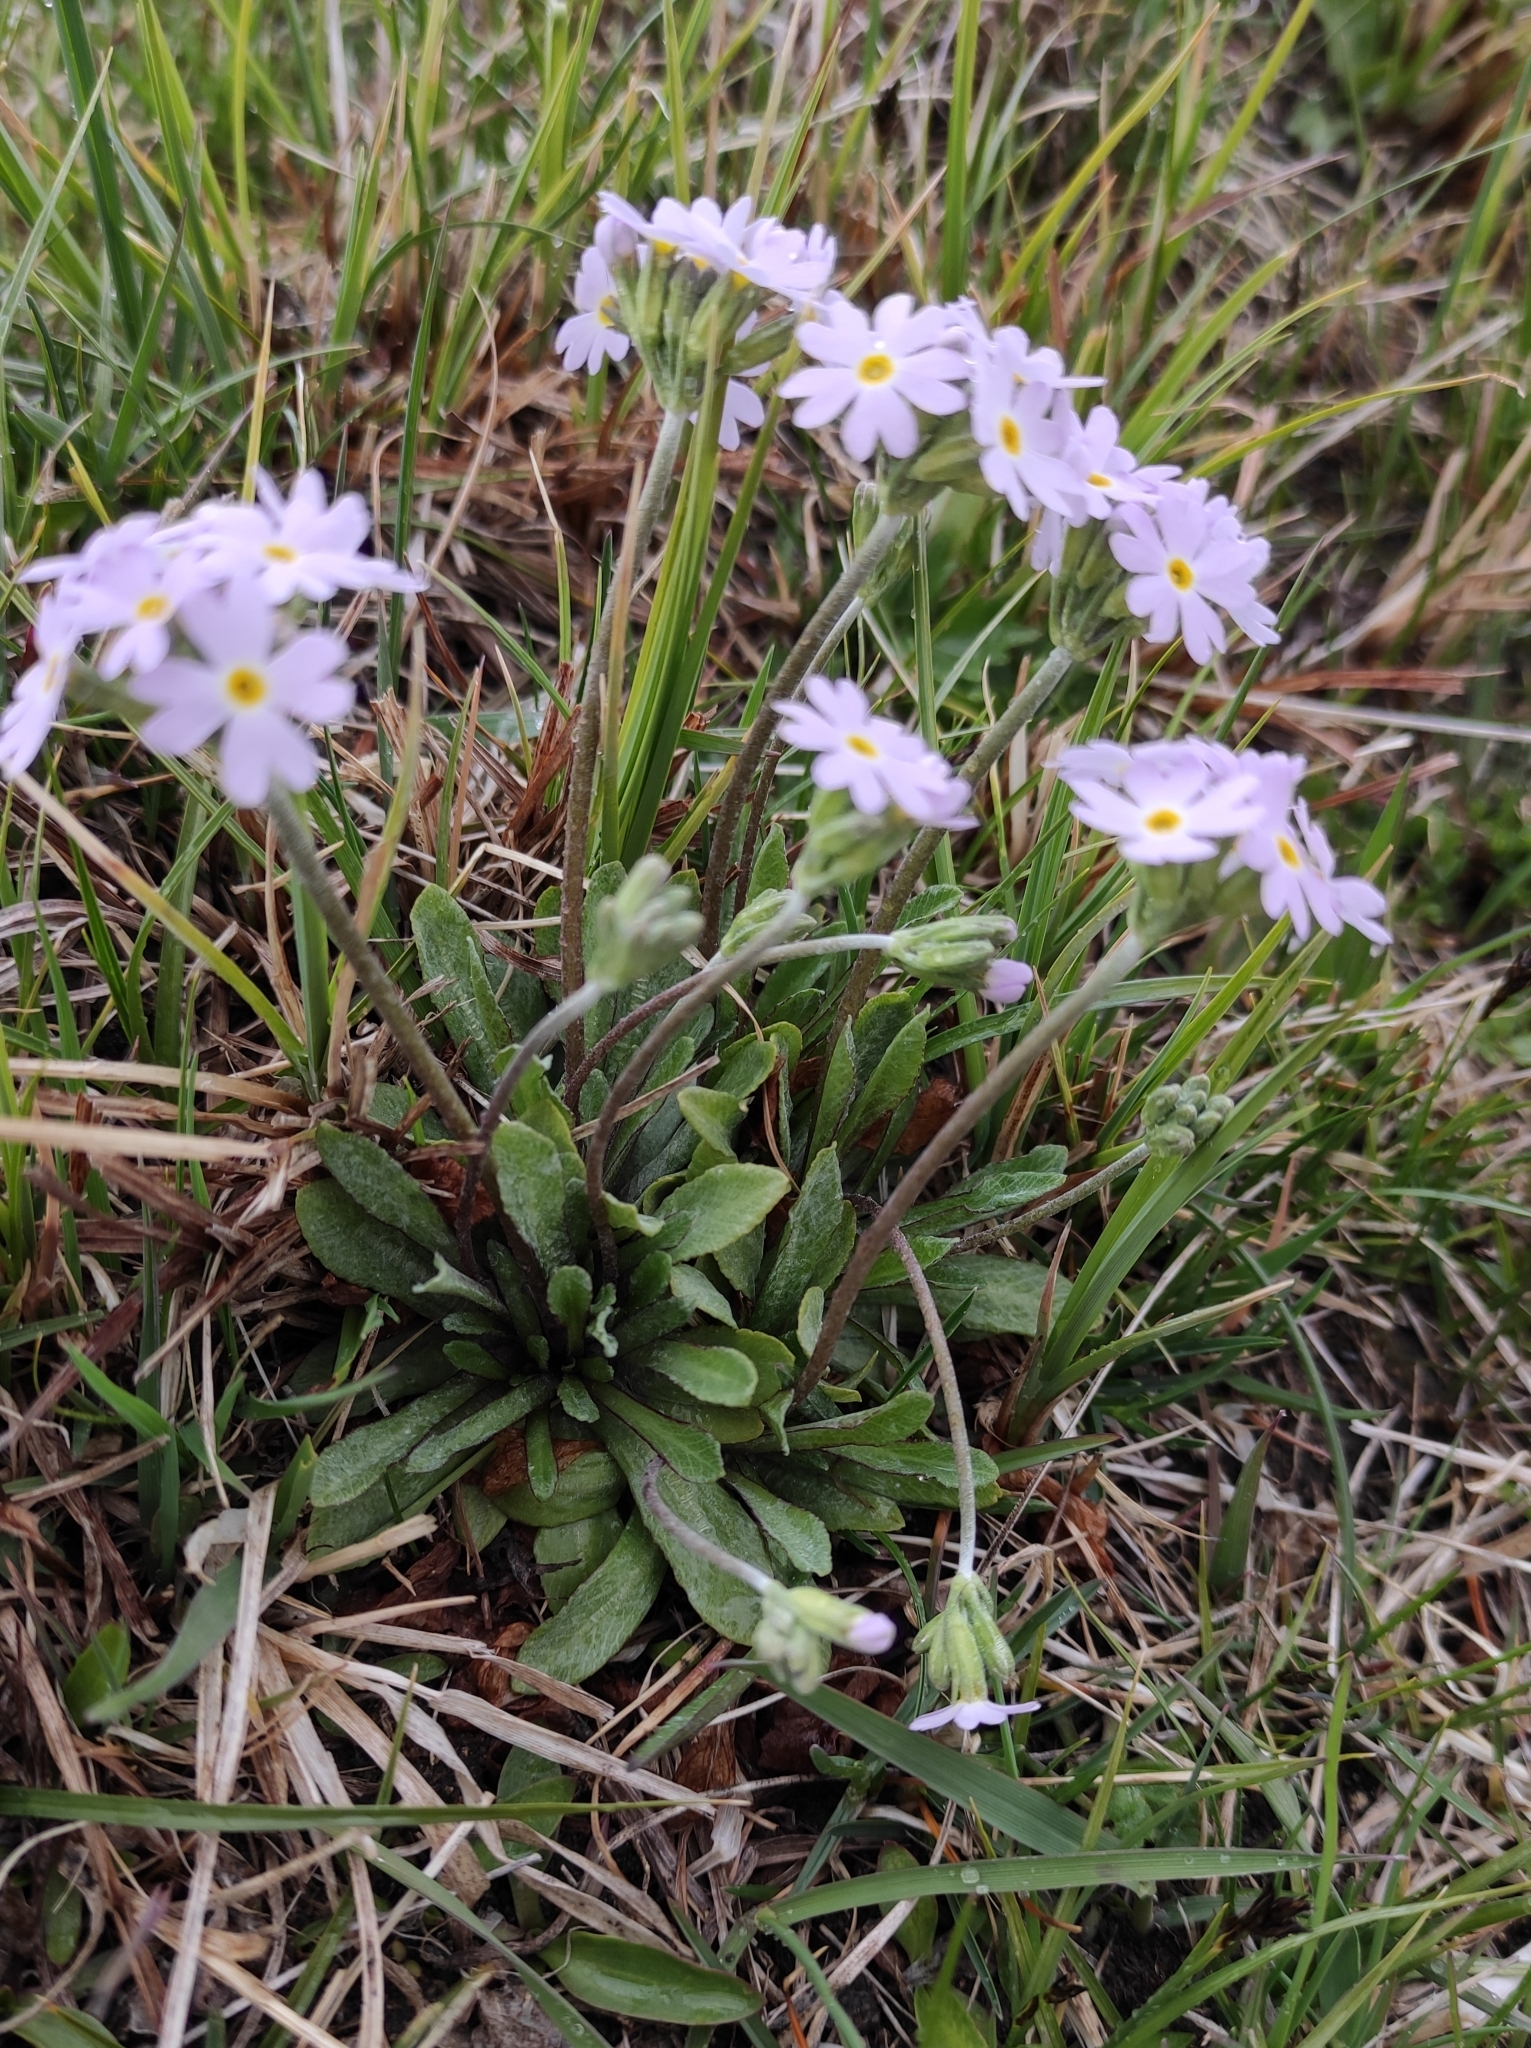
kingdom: Plantae
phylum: Tracheophyta
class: Magnoliopsida
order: Ericales
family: Primulaceae
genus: Primula
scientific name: Primula farinosa
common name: Bird's-eye primrose
